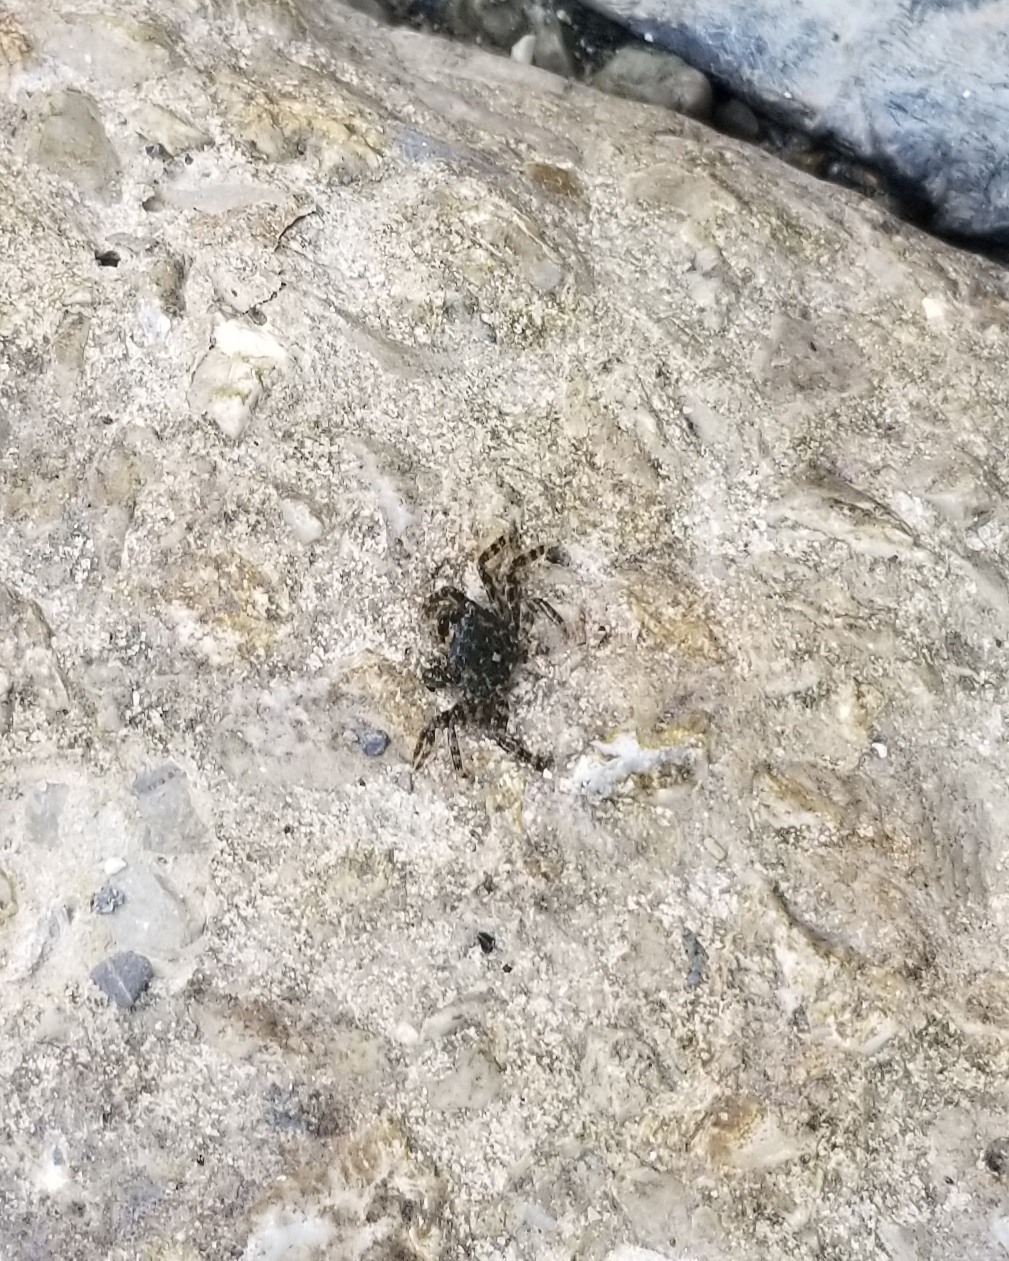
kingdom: Animalia
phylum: Arthropoda
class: Malacostraca
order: Decapoda
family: Grapsidae
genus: Pachygrapsus
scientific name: Pachygrapsus marmoratus
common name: Marbled rock crab
